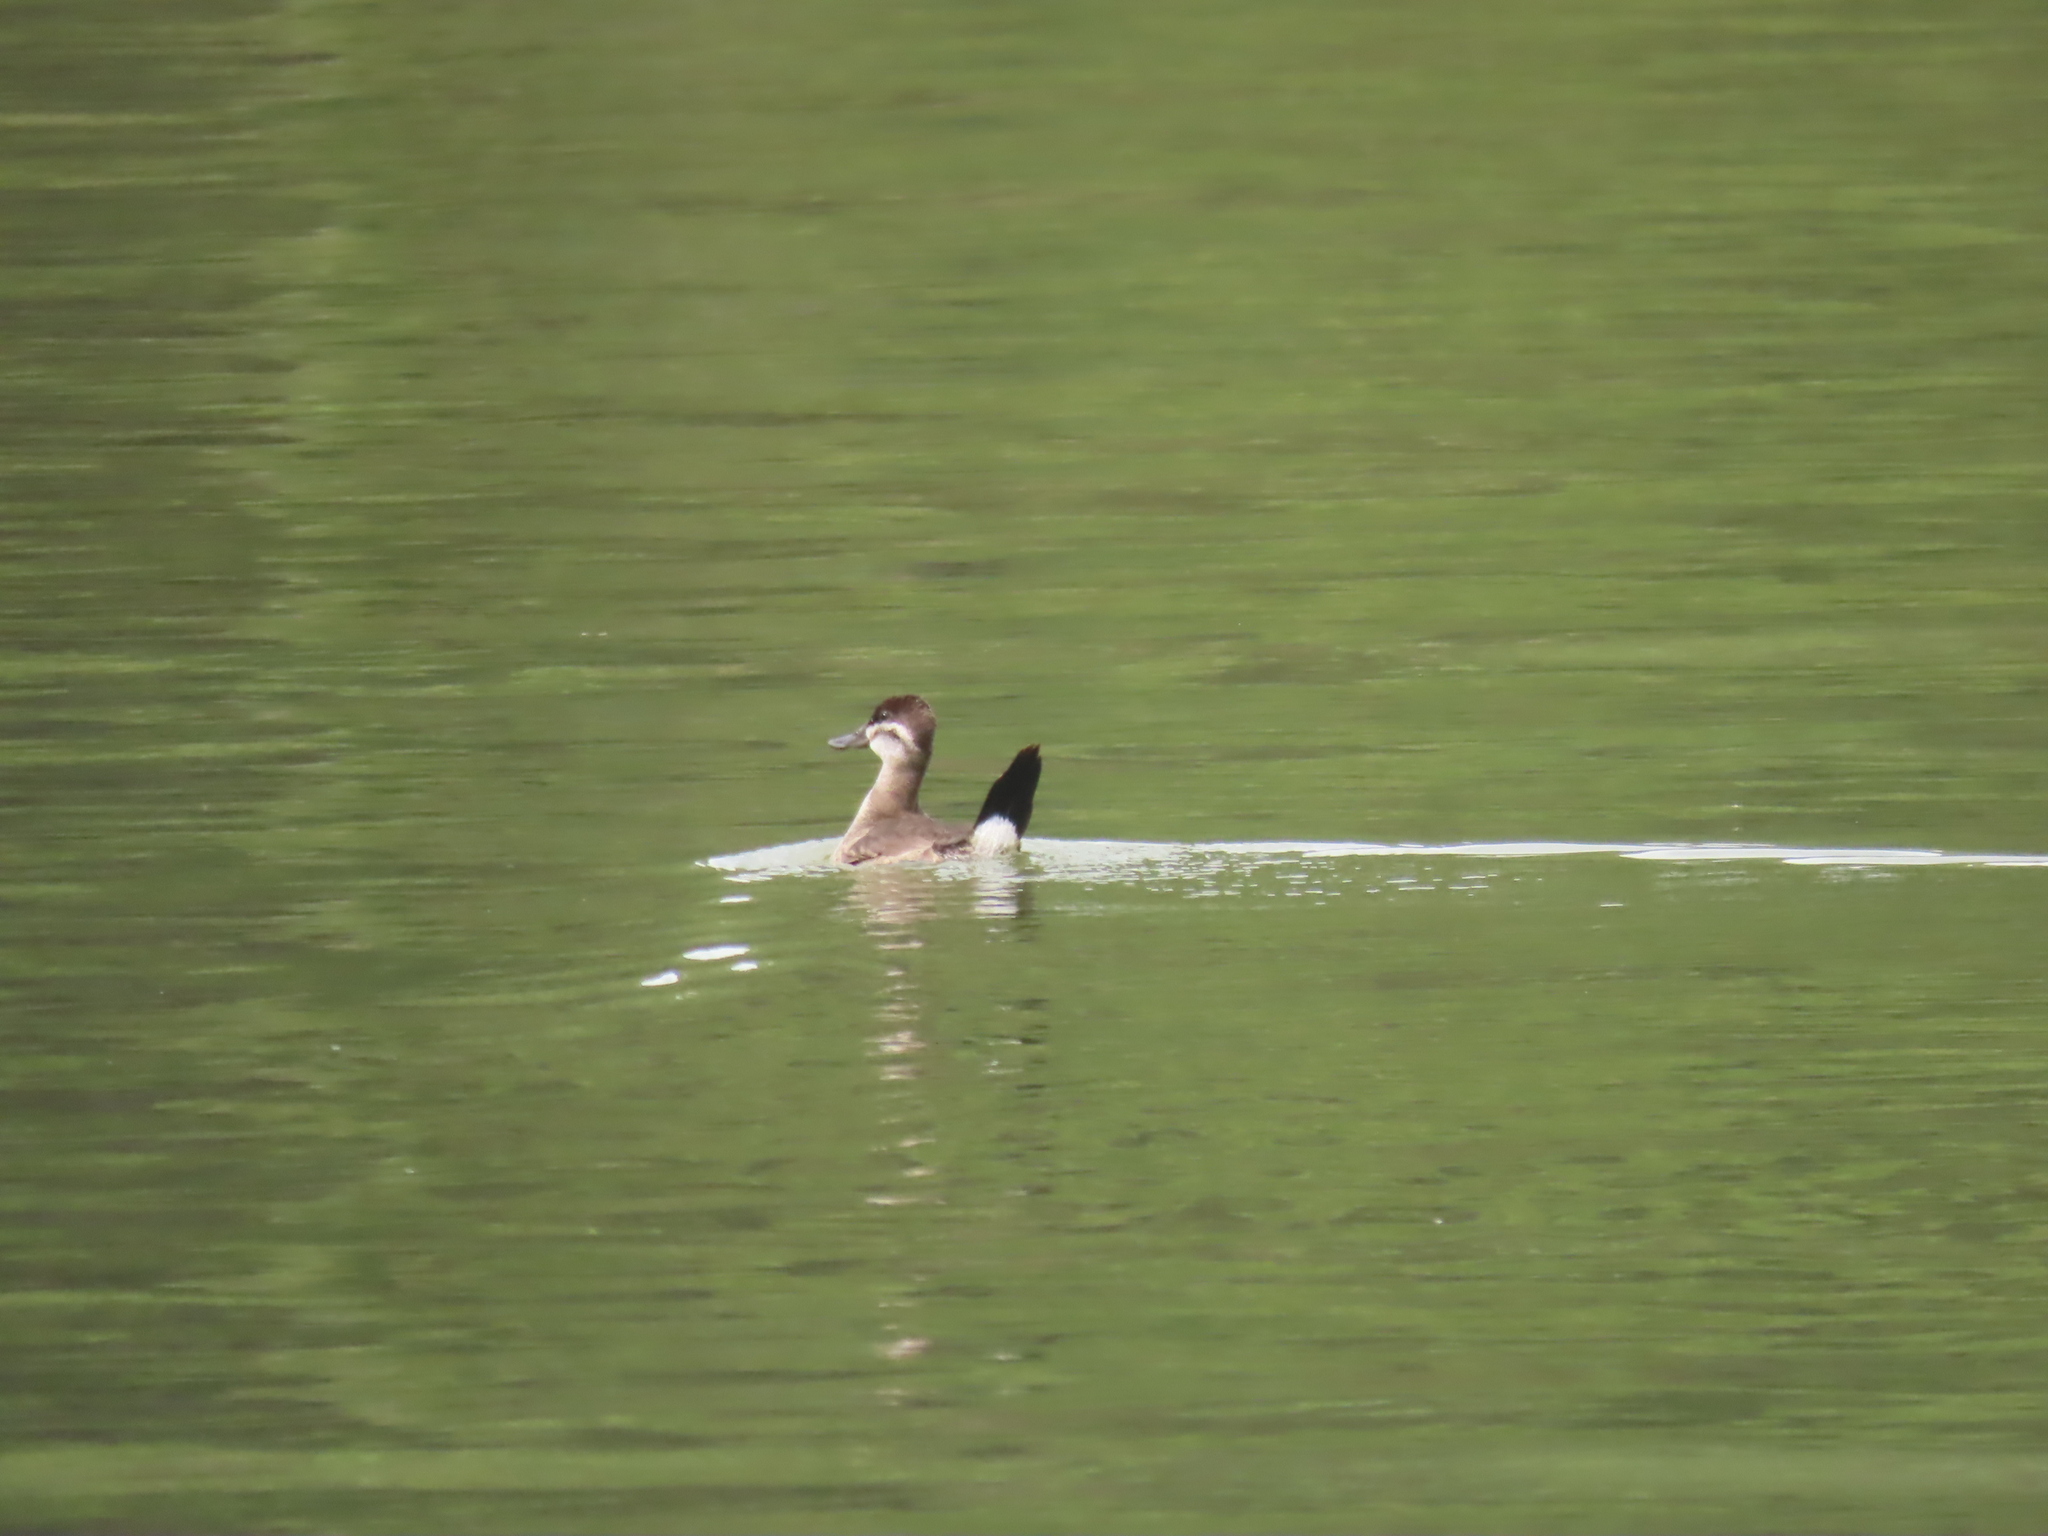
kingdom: Animalia
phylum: Chordata
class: Aves
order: Anseriformes
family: Anatidae
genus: Oxyura
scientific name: Oxyura jamaicensis
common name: Ruddy duck
